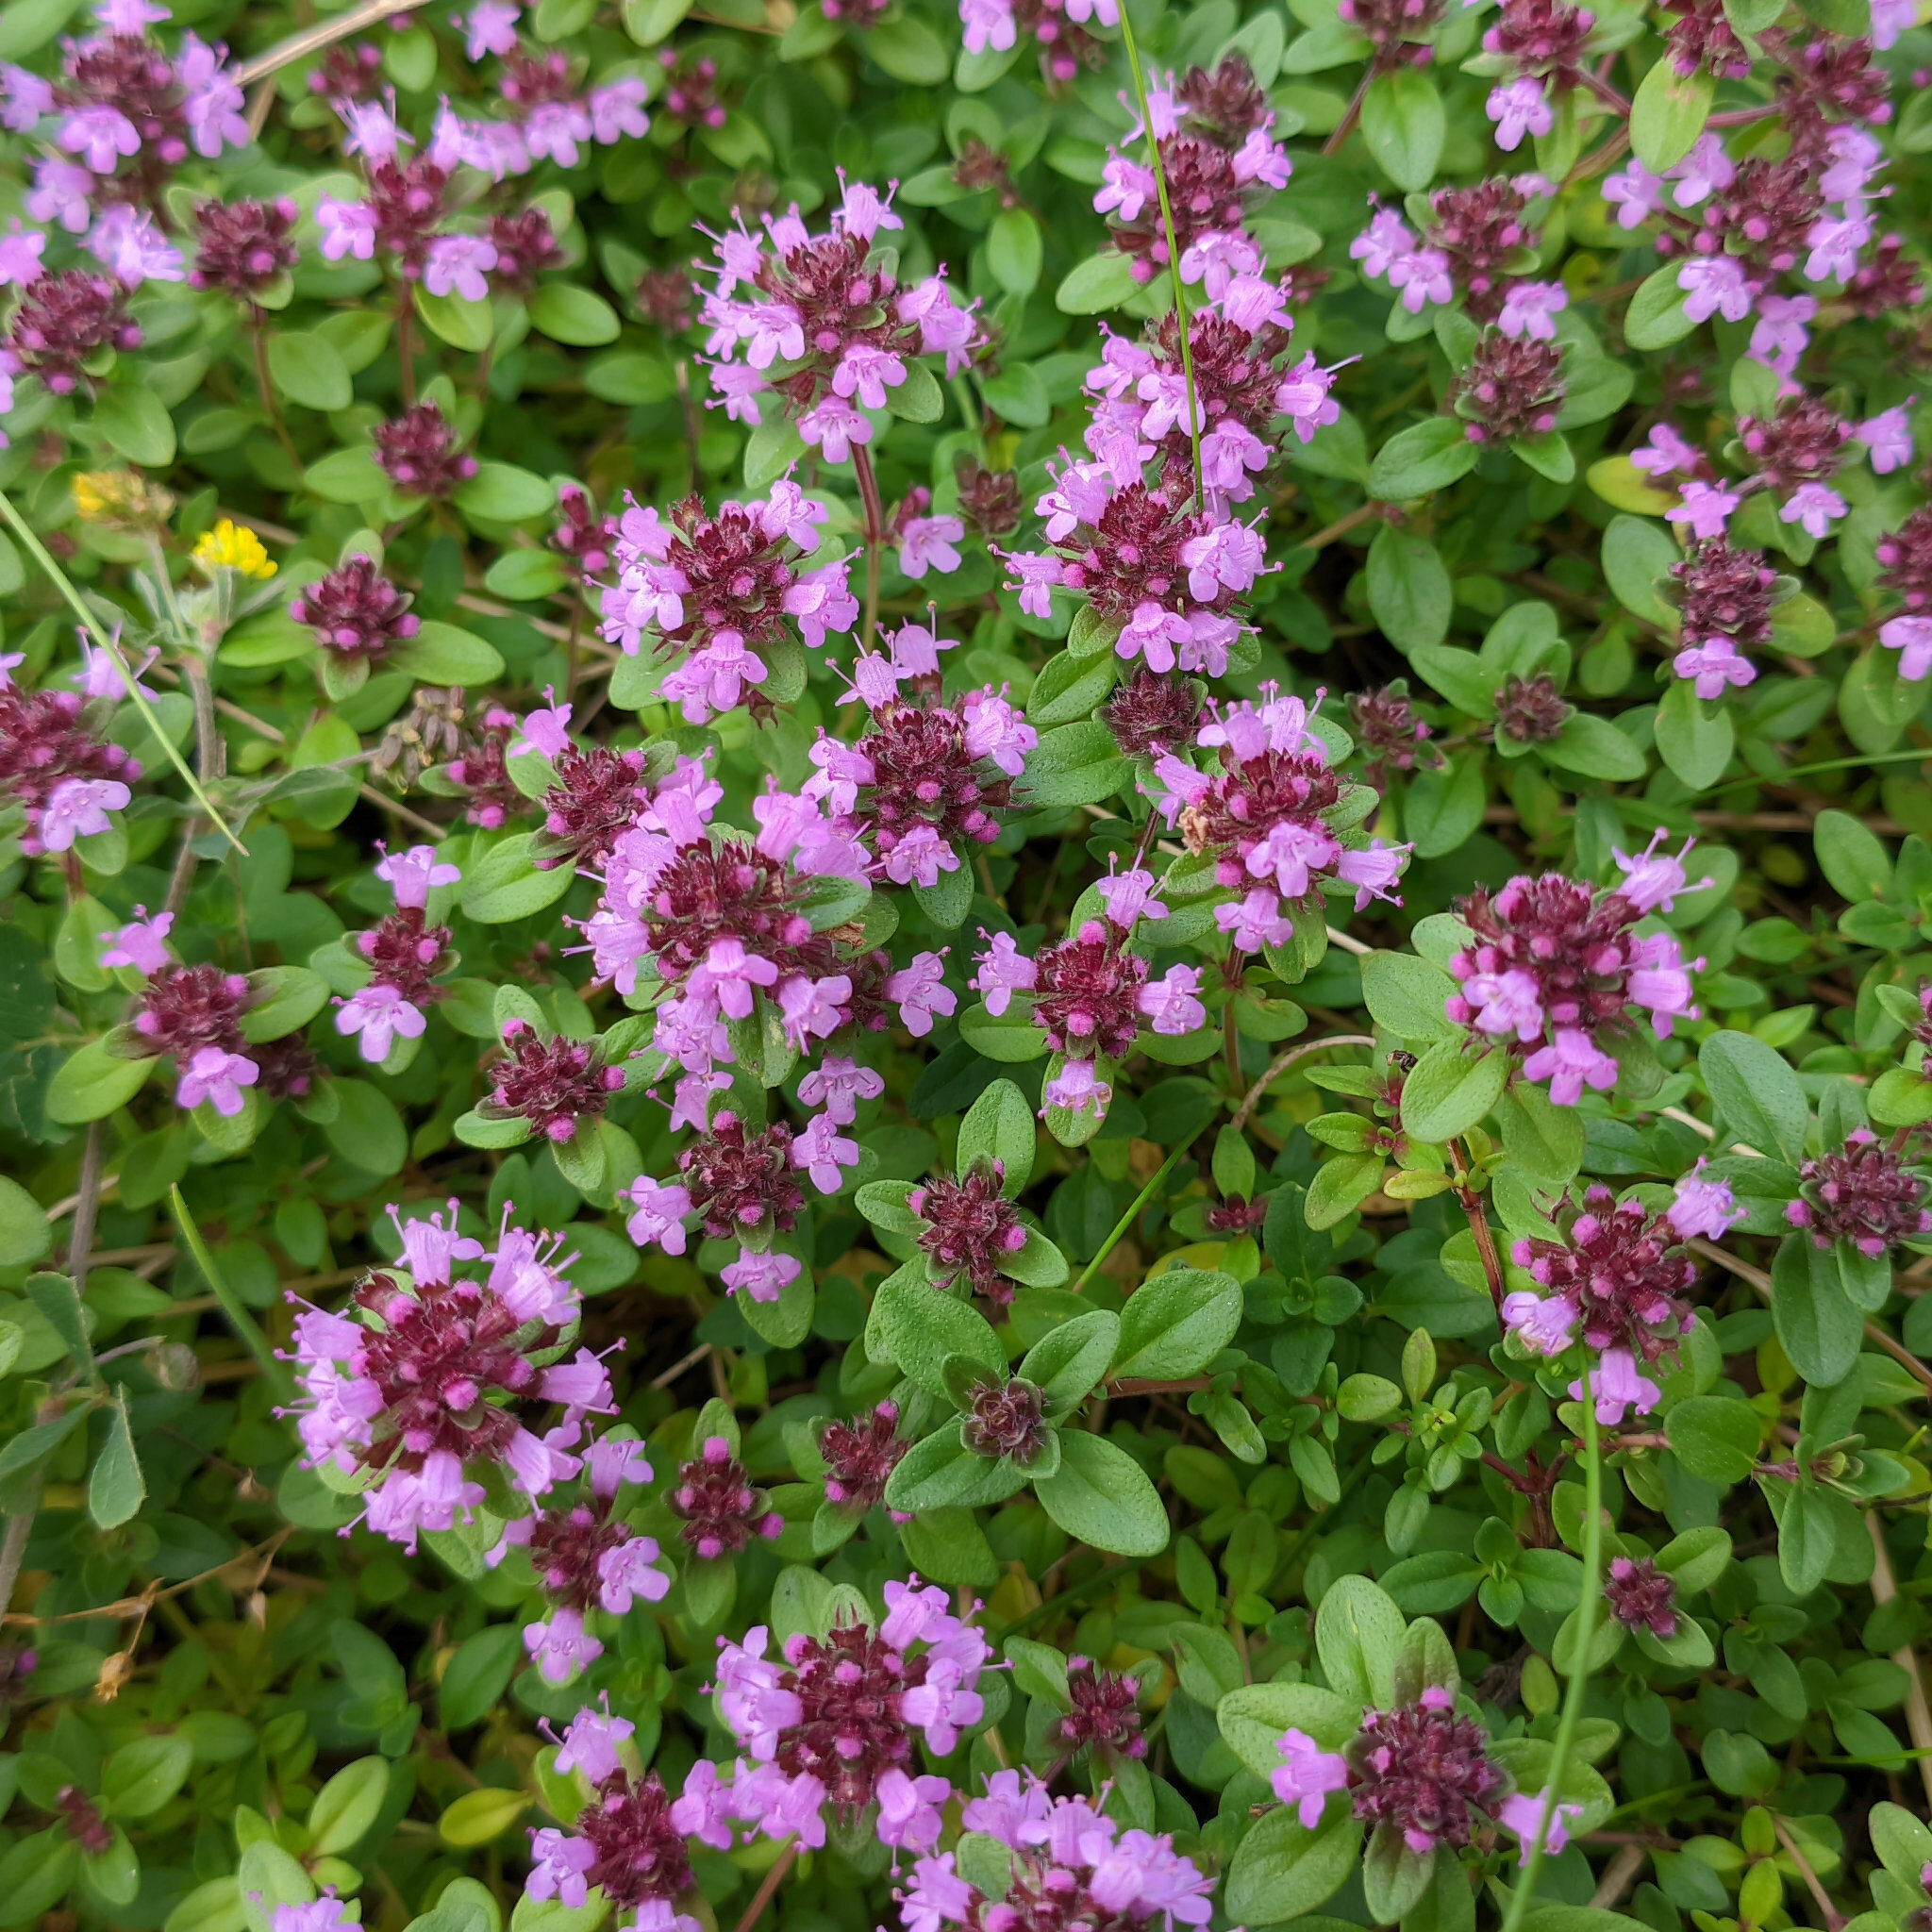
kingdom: Plantae
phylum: Tracheophyta
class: Magnoliopsida
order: Lamiales
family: Lamiaceae
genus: Thymus
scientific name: Thymus pulegioides
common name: Large thyme
